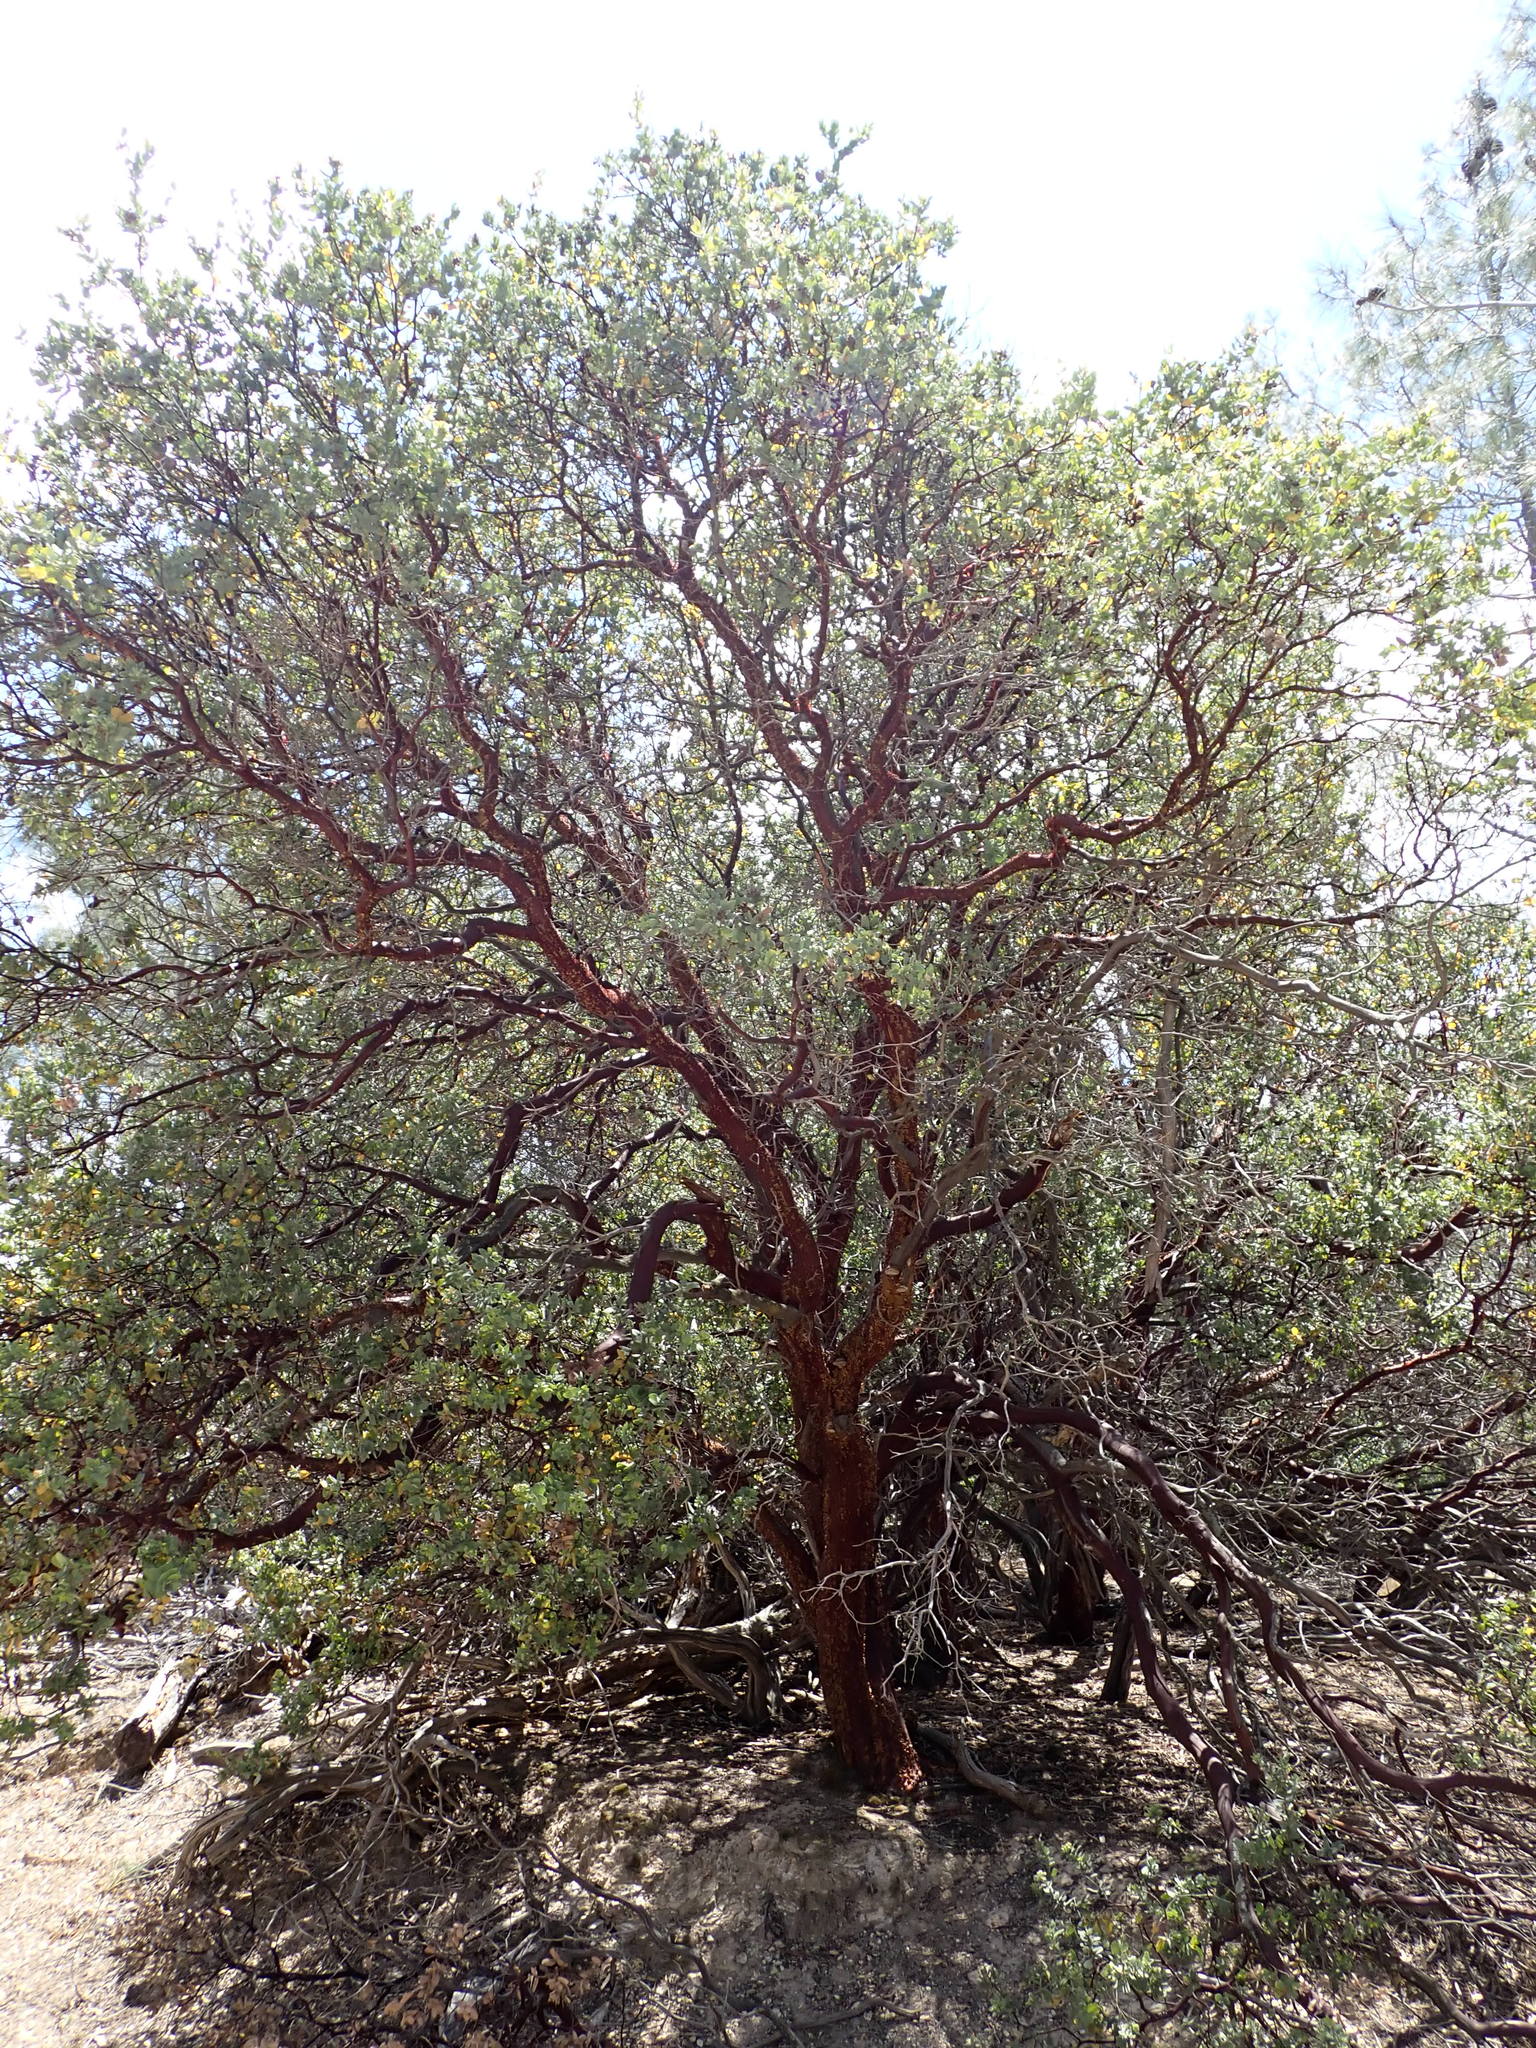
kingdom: Plantae
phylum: Tracheophyta
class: Magnoliopsida
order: Ericales
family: Ericaceae
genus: Arctostaphylos
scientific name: Arctostaphylos auriculata
